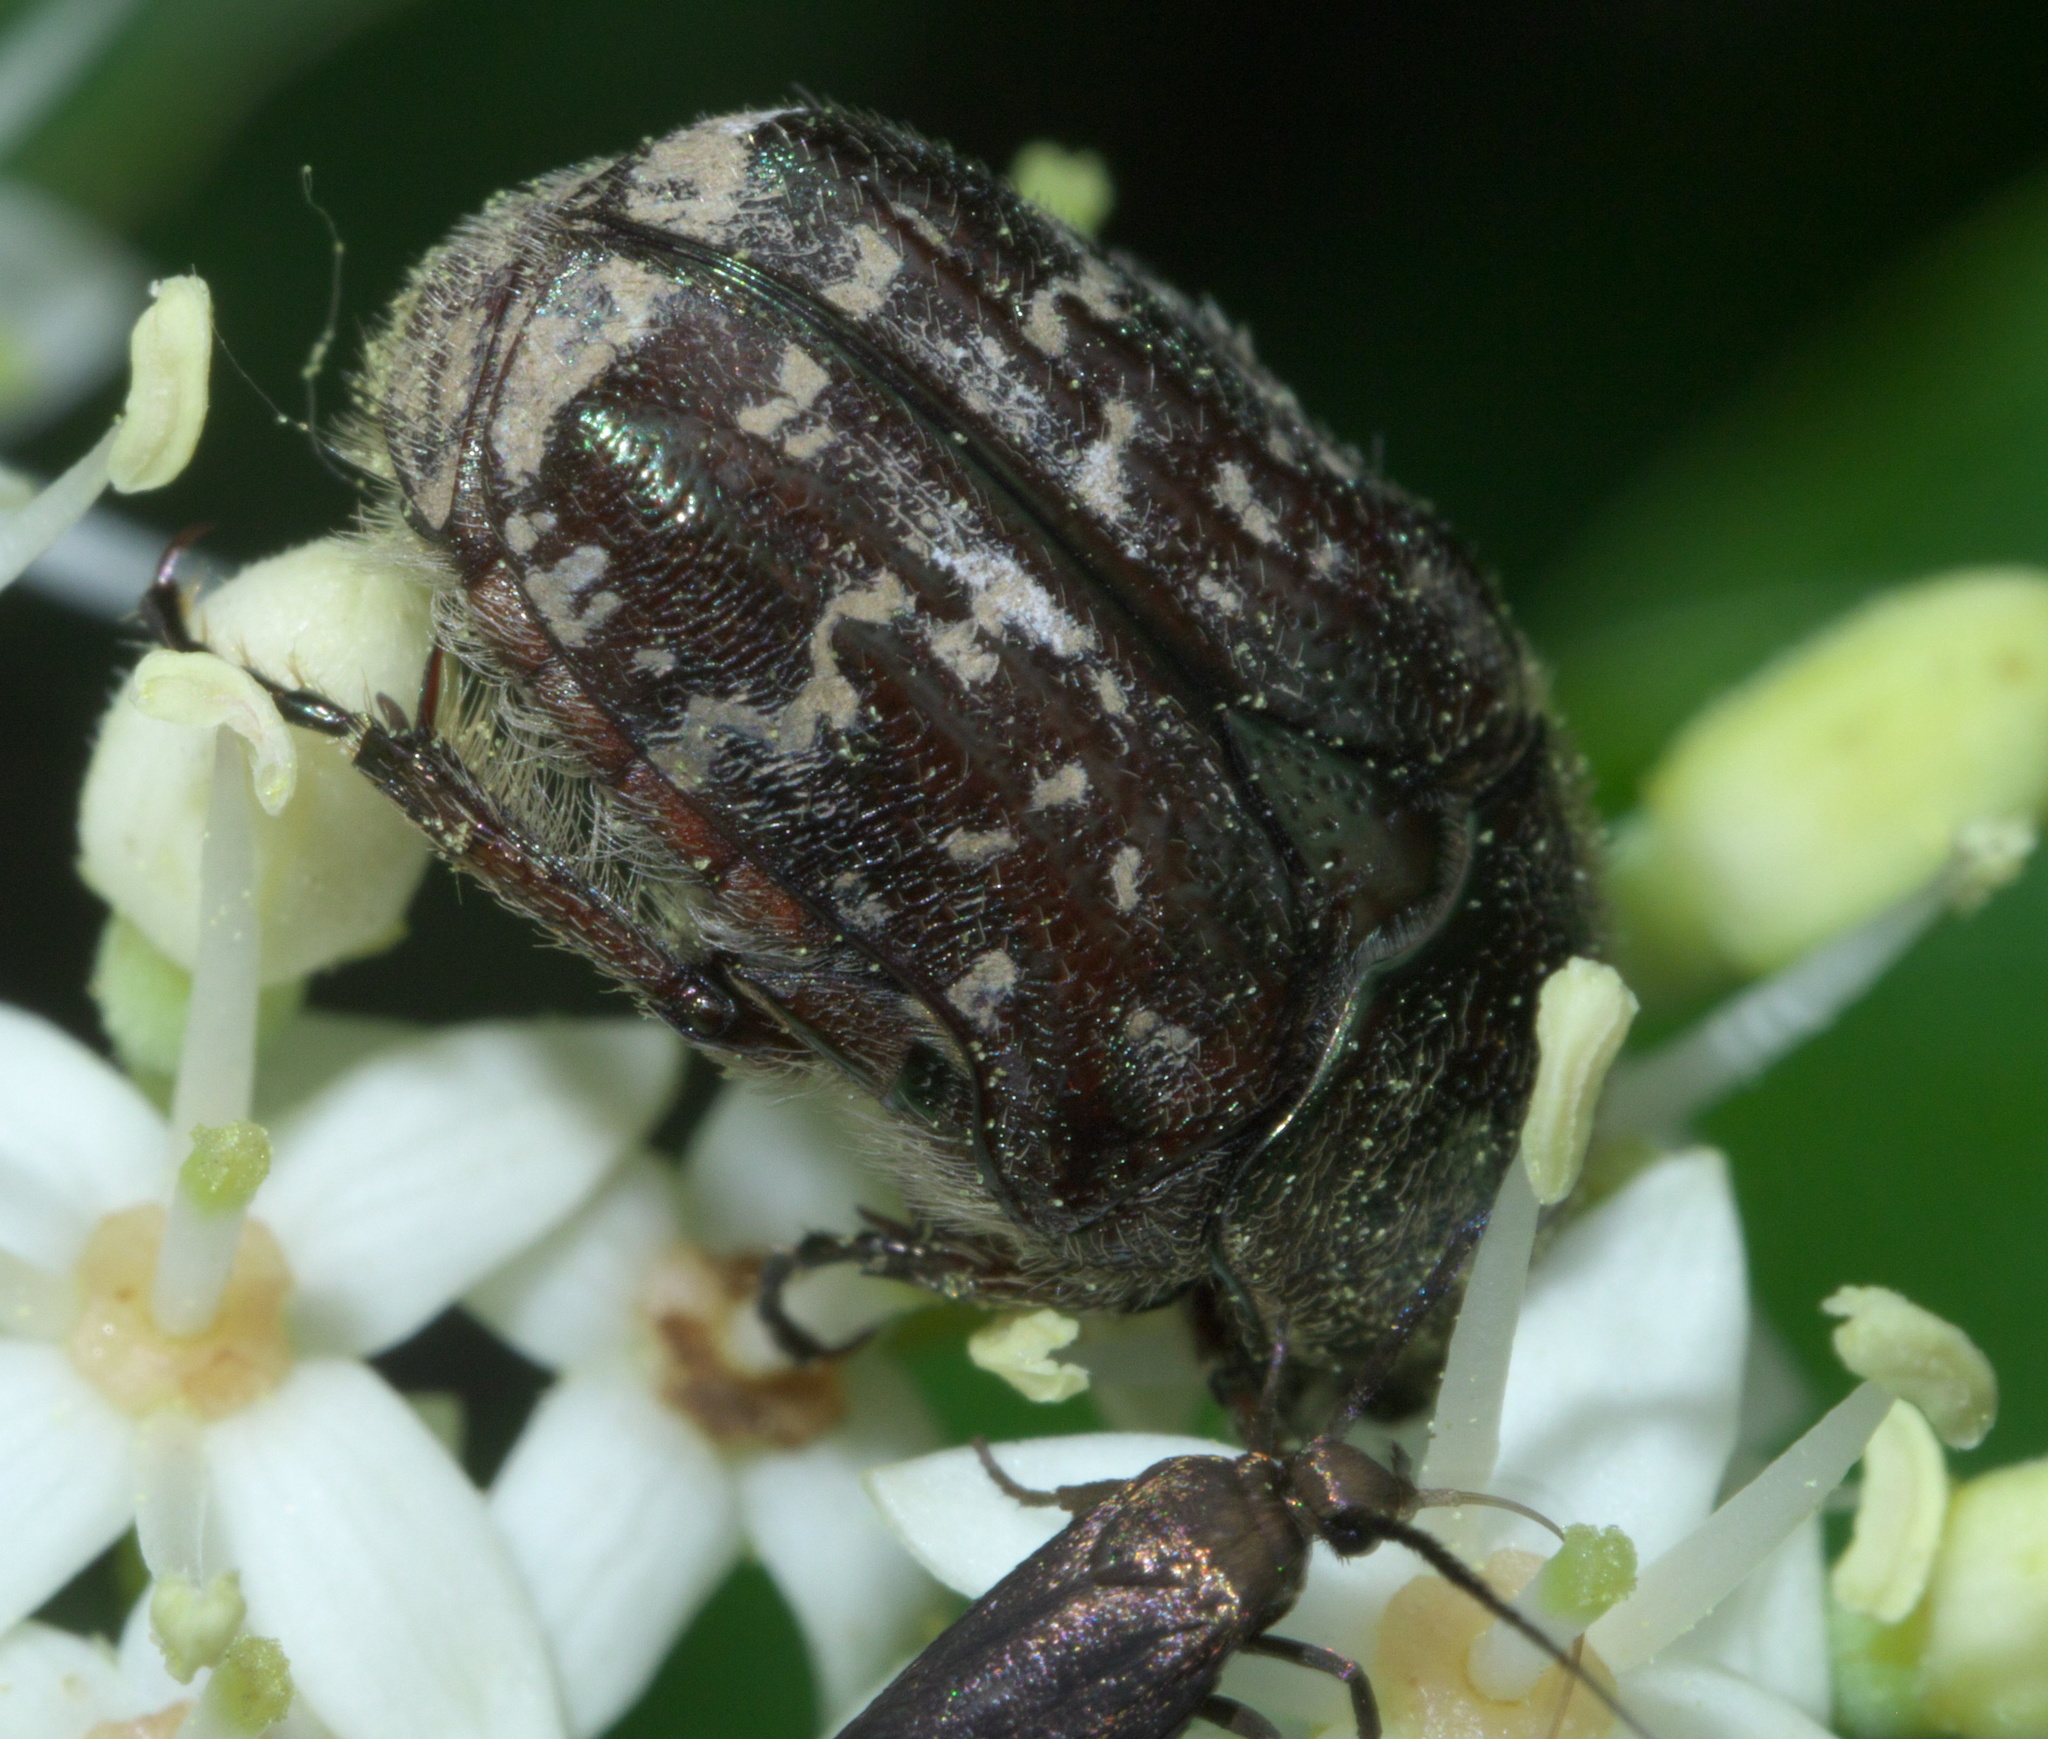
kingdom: Animalia
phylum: Arthropoda
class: Insecta
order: Coleoptera
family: Scarabaeidae
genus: Euphoria
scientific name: Euphoria sepulcralis
